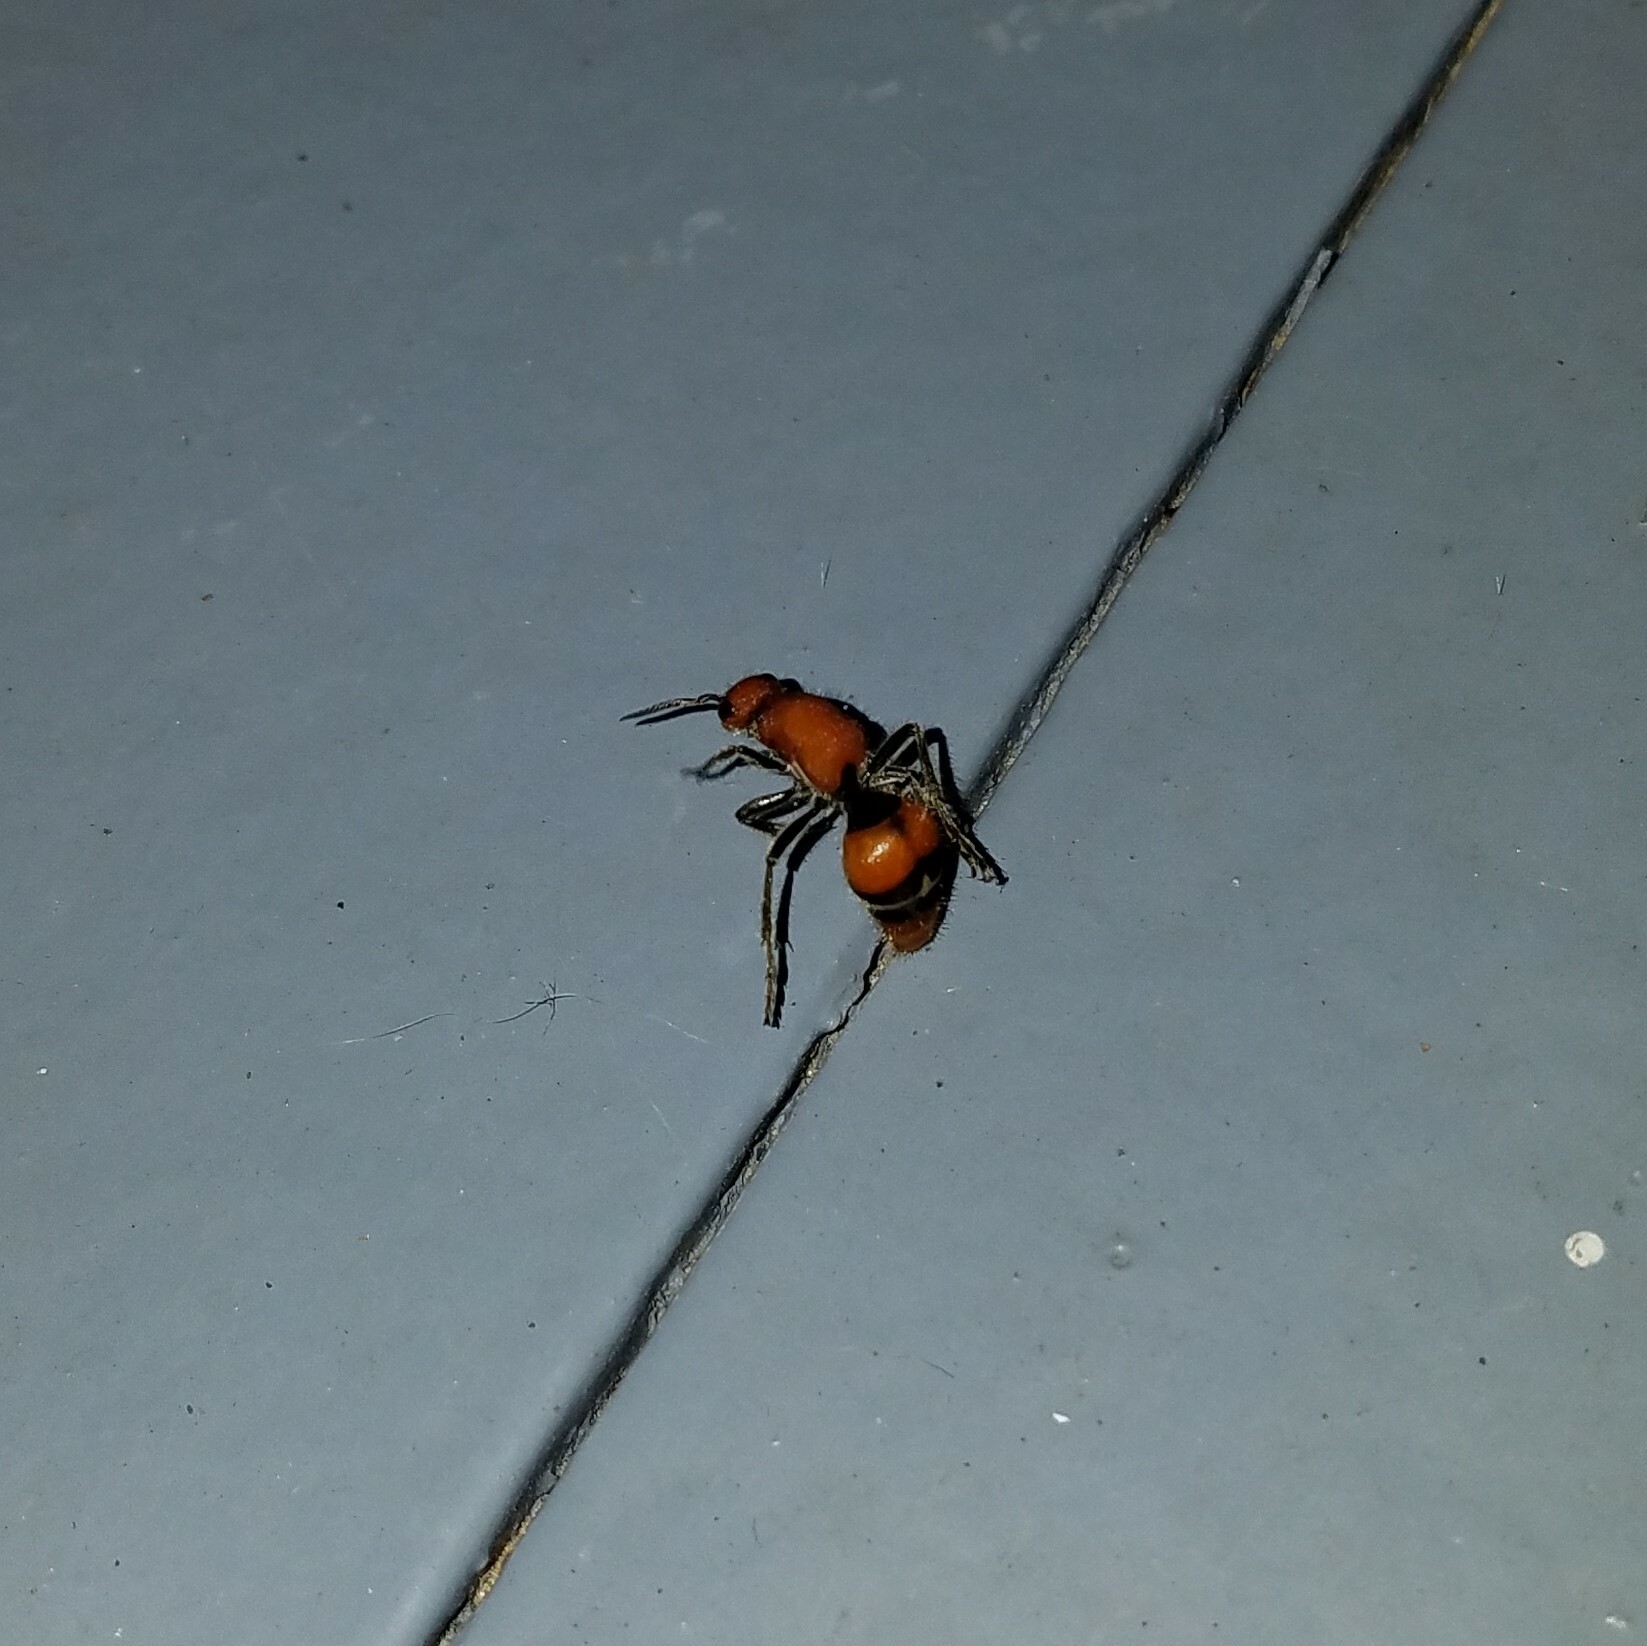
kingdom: Animalia
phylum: Arthropoda
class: Insecta
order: Hymenoptera
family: Mutillidae
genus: Timulla
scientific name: Timulla
